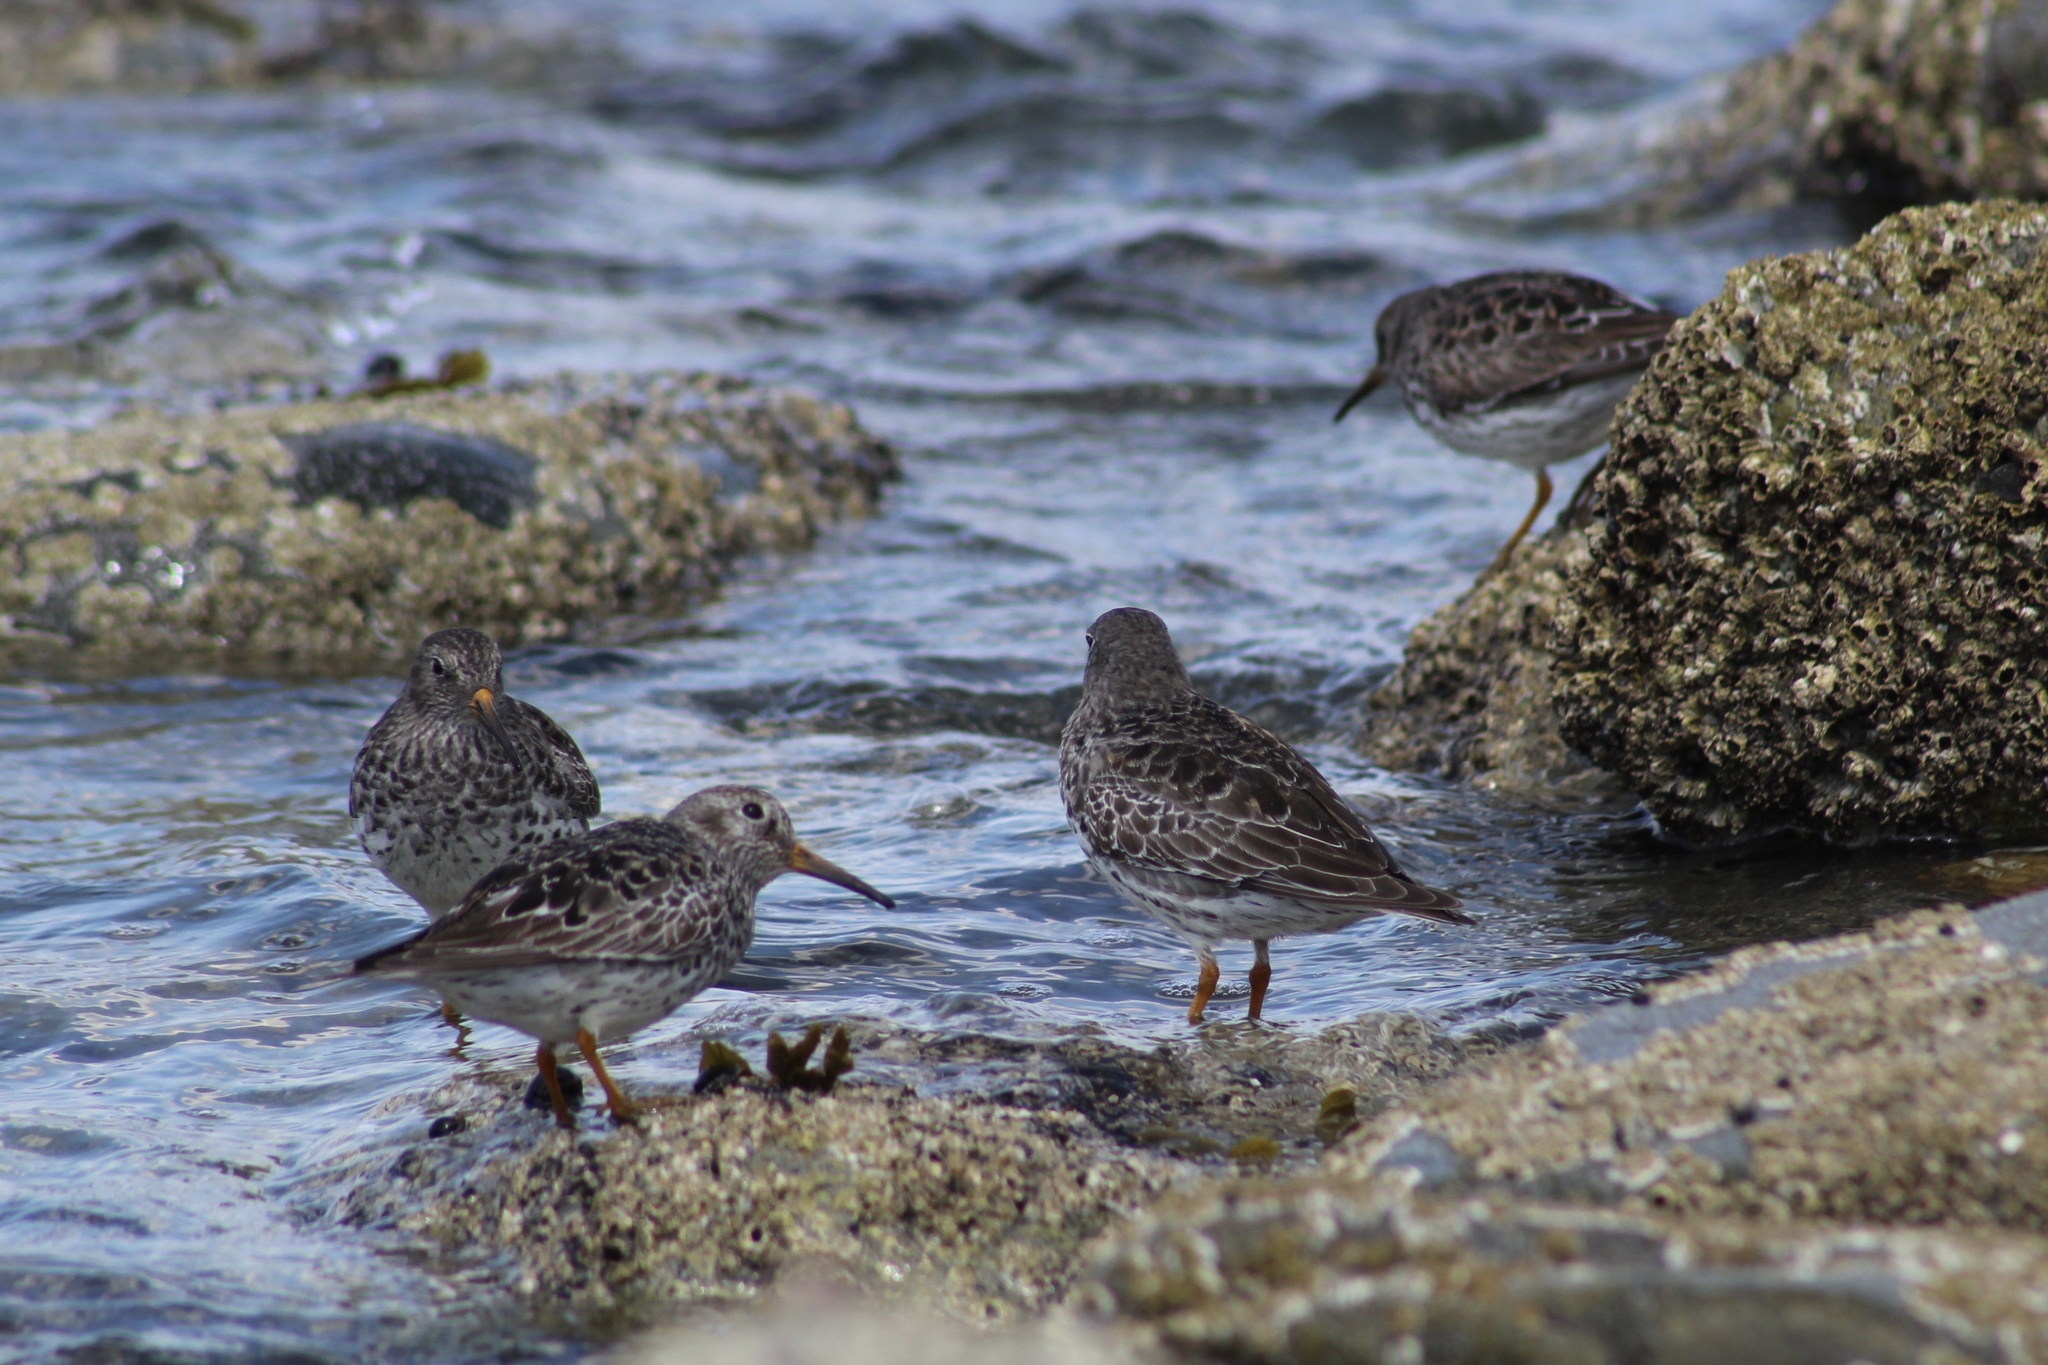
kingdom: Animalia
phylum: Chordata
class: Aves
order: Charadriiformes
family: Scolopacidae
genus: Calidris
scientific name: Calidris maritima
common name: Purple sandpiper
